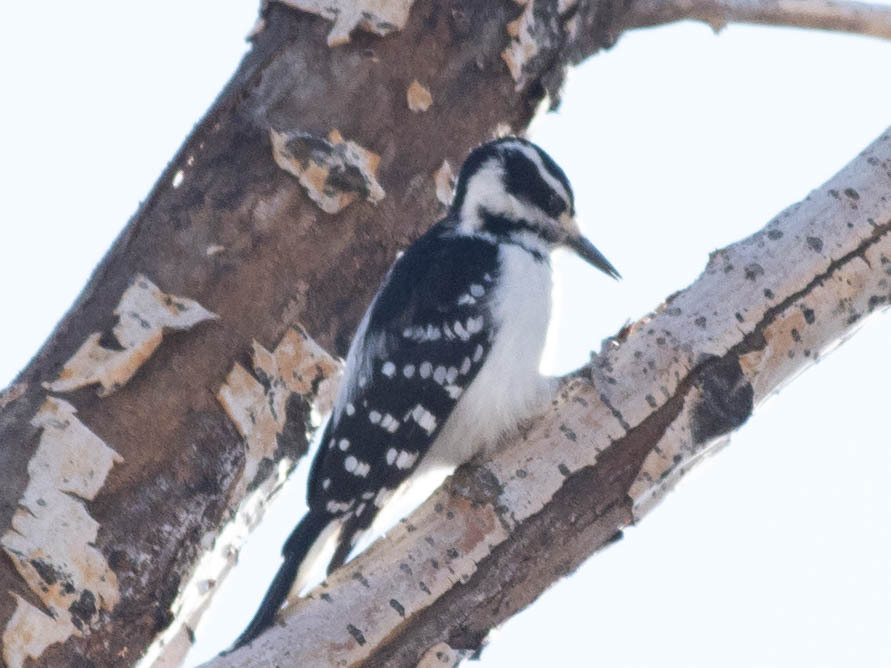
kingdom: Animalia
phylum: Chordata
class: Aves
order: Piciformes
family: Picidae
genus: Leuconotopicus
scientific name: Leuconotopicus villosus
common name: Hairy woodpecker
